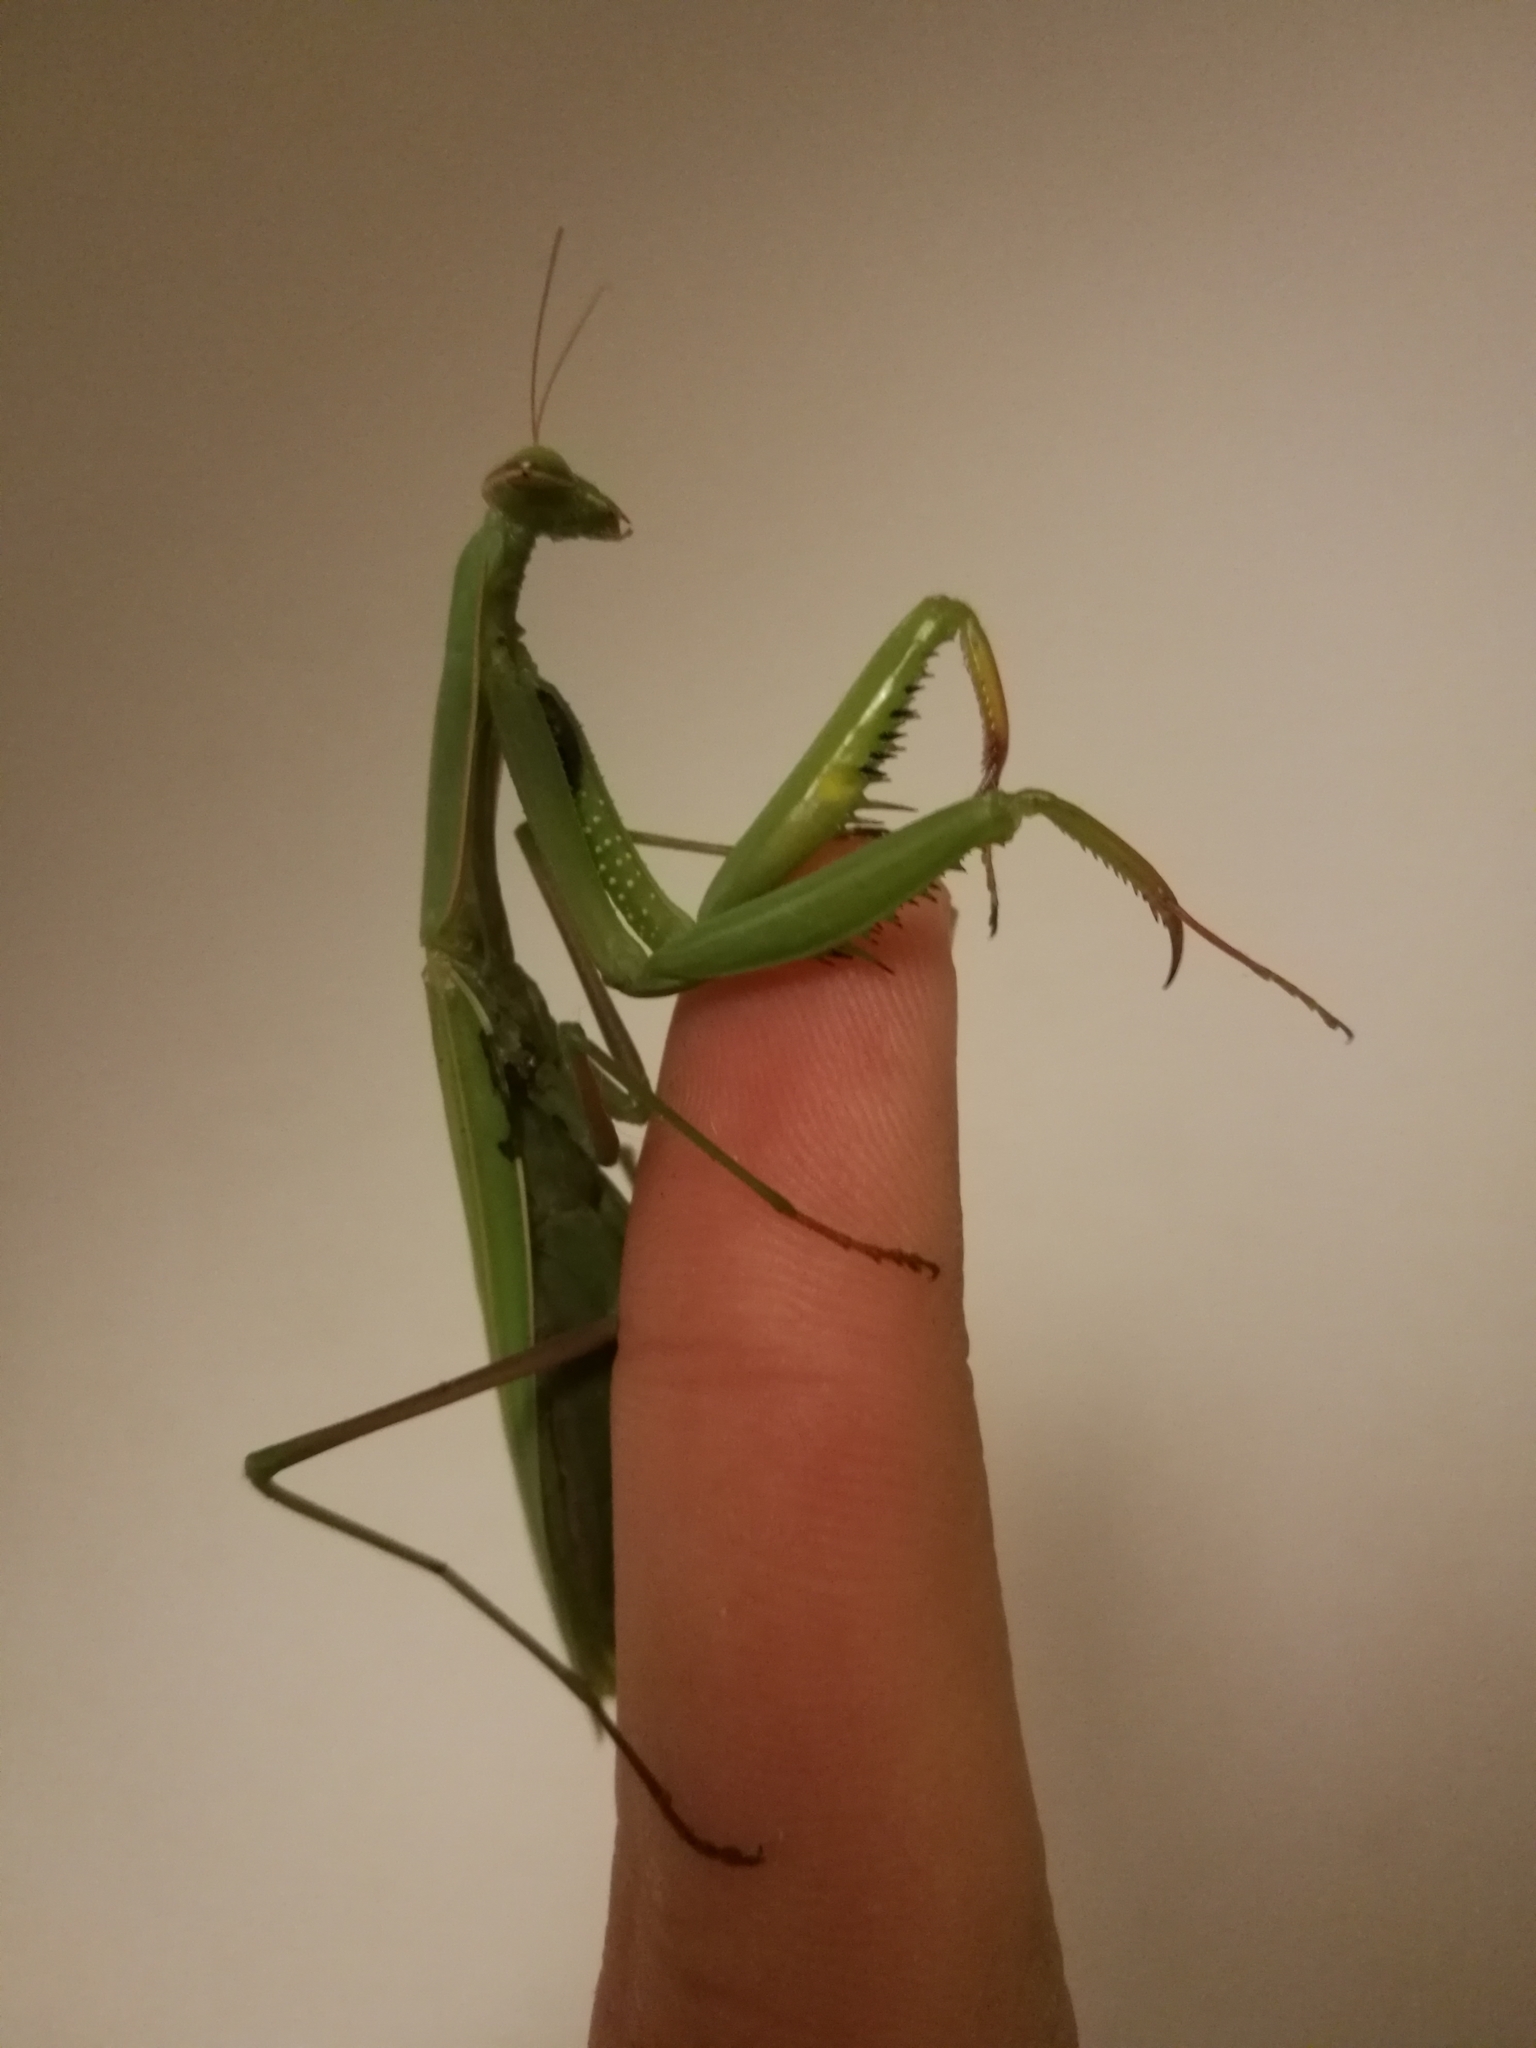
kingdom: Animalia
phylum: Arthropoda
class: Insecta
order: Mantodea
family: Mantidae
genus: Mantis
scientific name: Mantis religiosa
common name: Praying mantis
